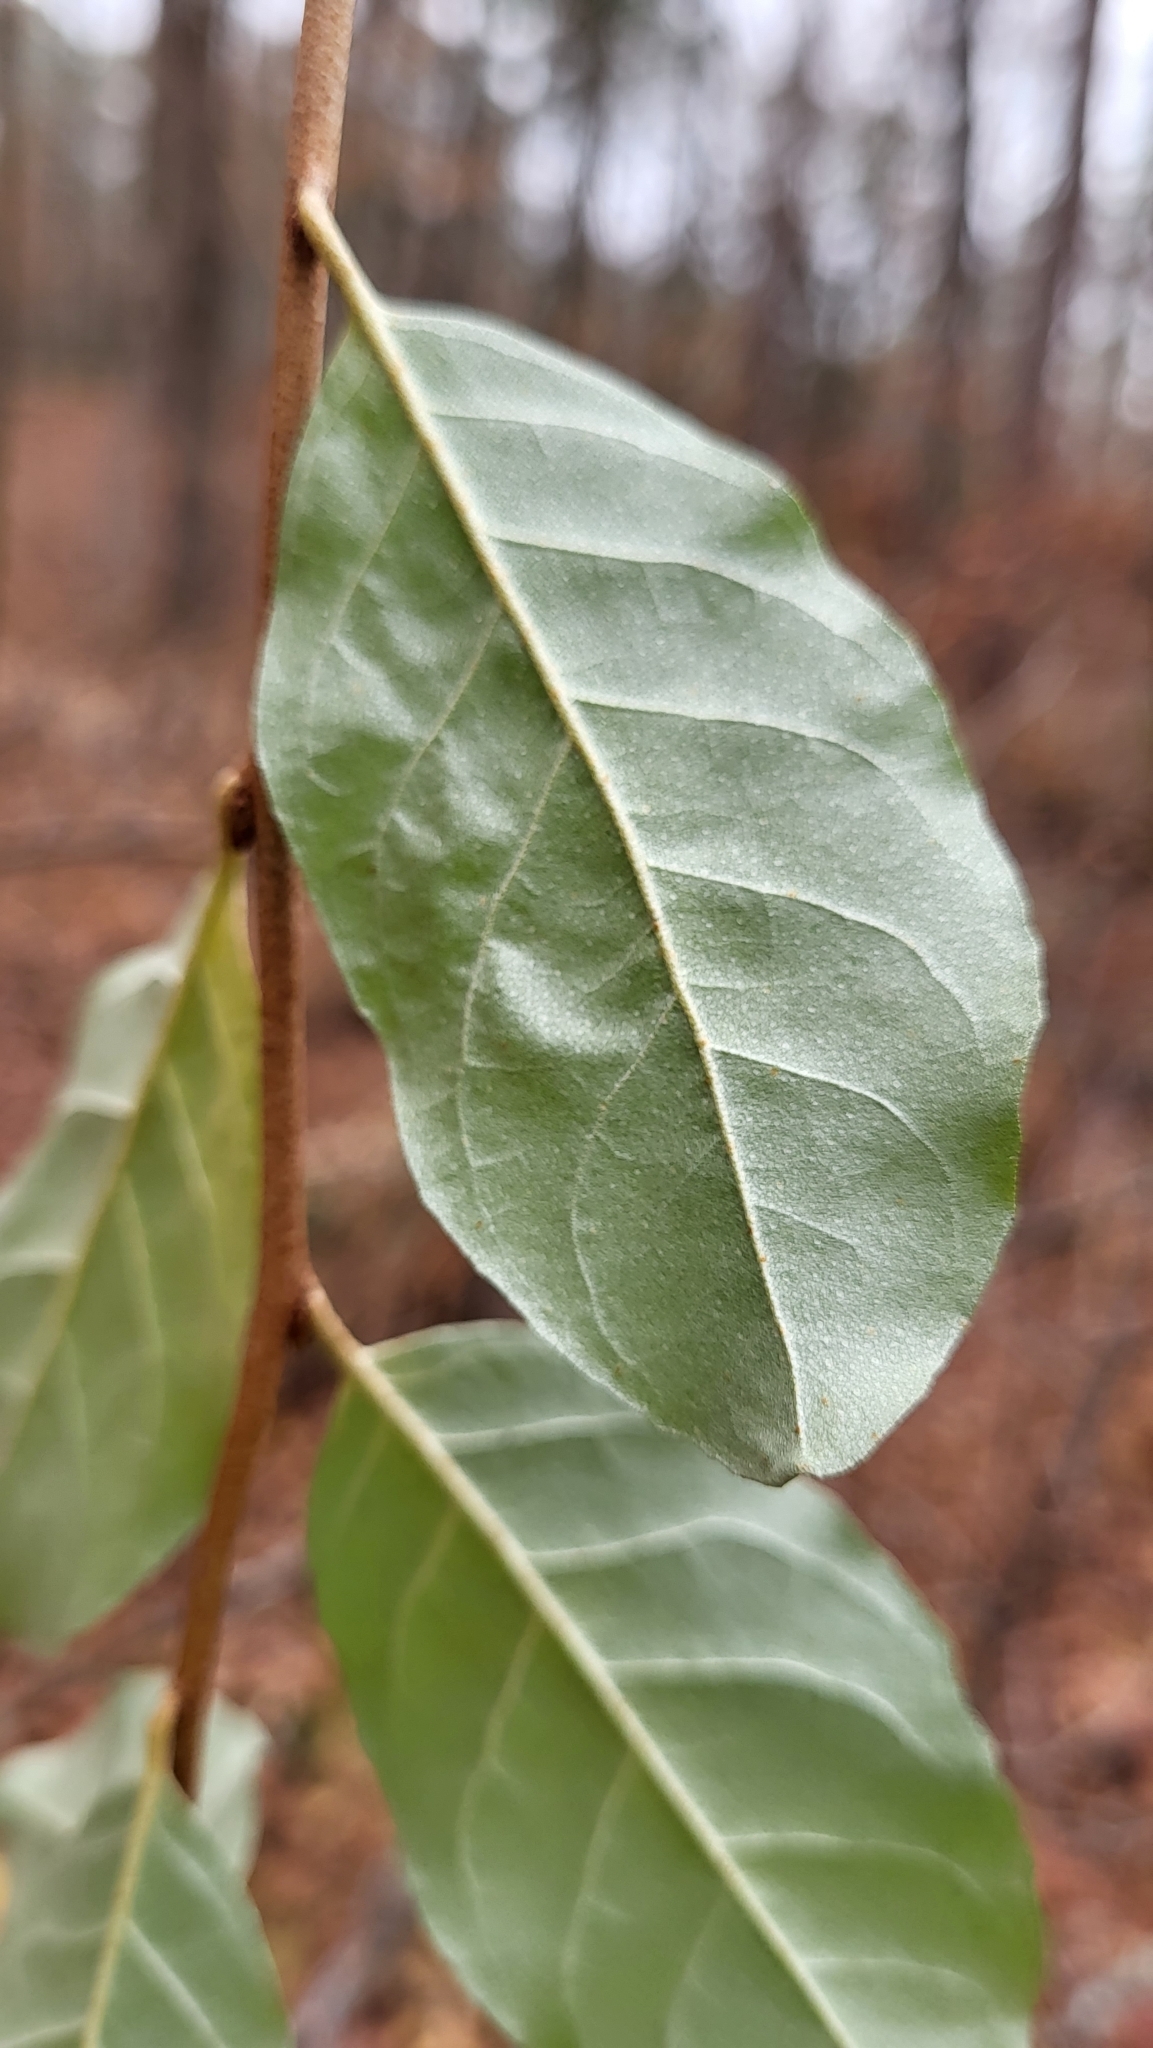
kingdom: Plantae
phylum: Tracheophyta
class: Magnoliopsida
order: Rosales
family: Elaeagnaceae
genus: Elaeagnus
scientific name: Elaeagnus umbellata
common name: Autumn olive
